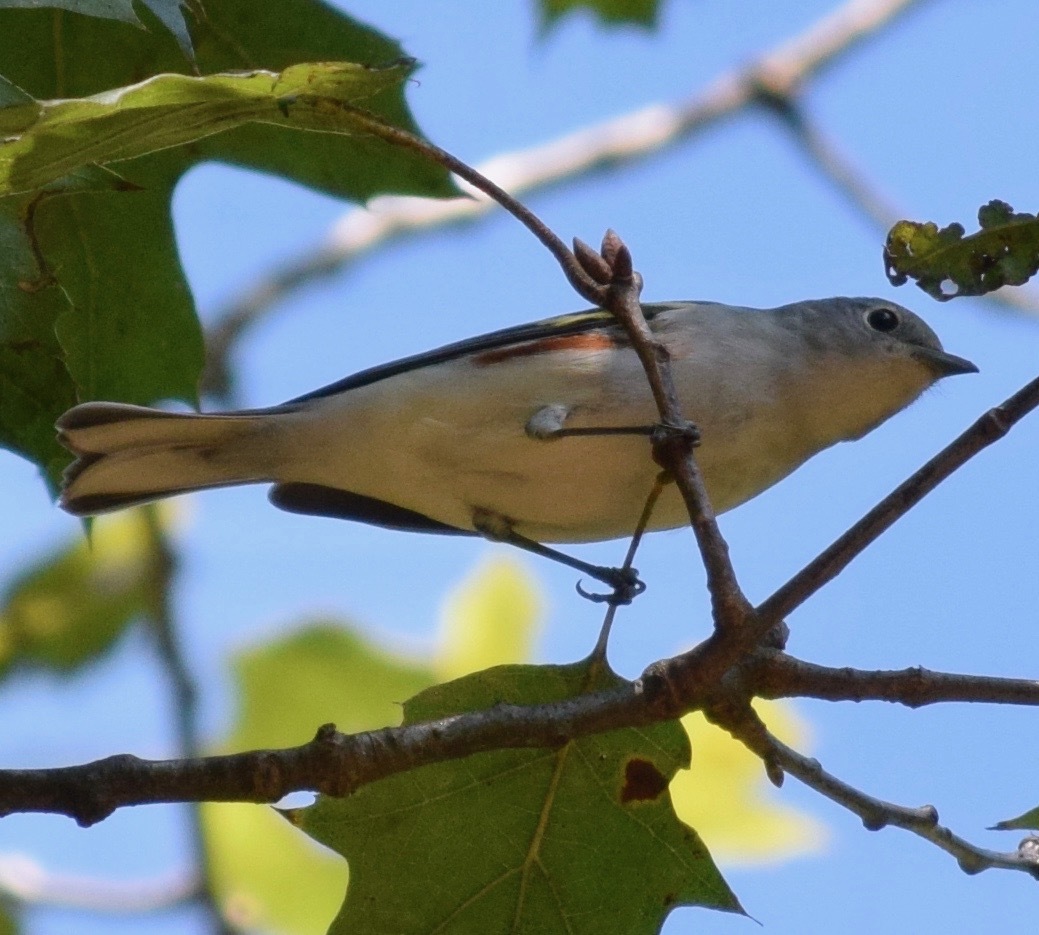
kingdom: Animalia
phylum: Chordata
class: Aves
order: Passeriformes
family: Parulidae
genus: Setophaga
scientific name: Setophaga pensylvanica
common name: Chestnut-sided warbler
